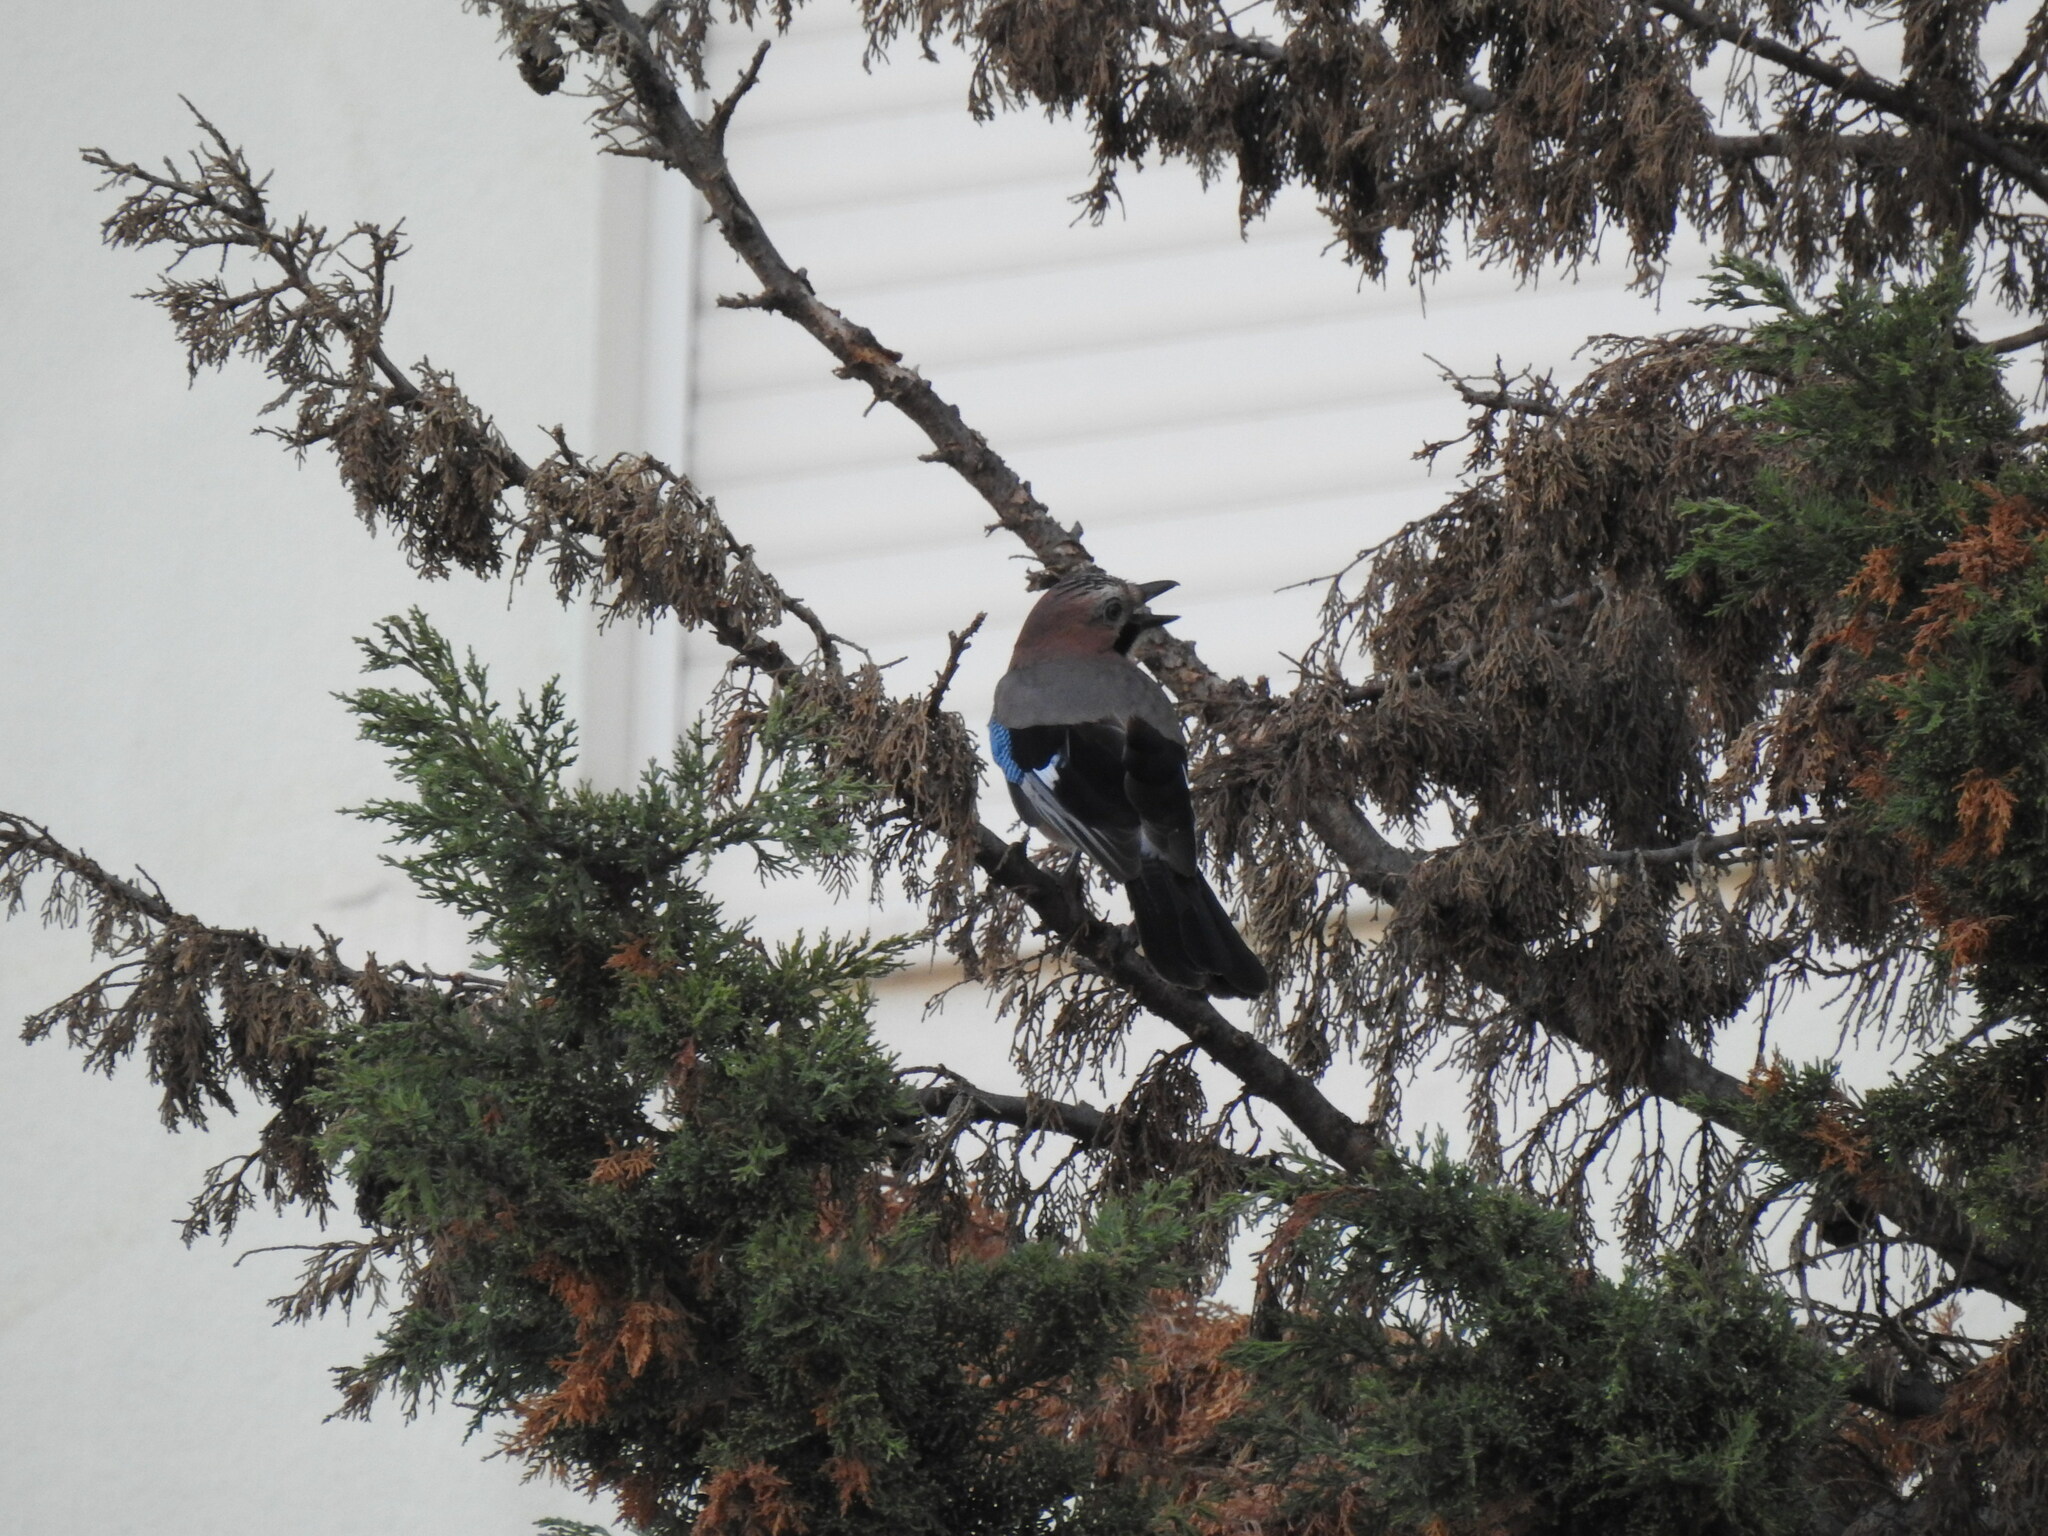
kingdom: Animalia
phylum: Chordata
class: Aves
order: Passeriformes
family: Corvidae
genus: Garrulus
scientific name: Garrulus glandarius
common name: Eurasian jay
